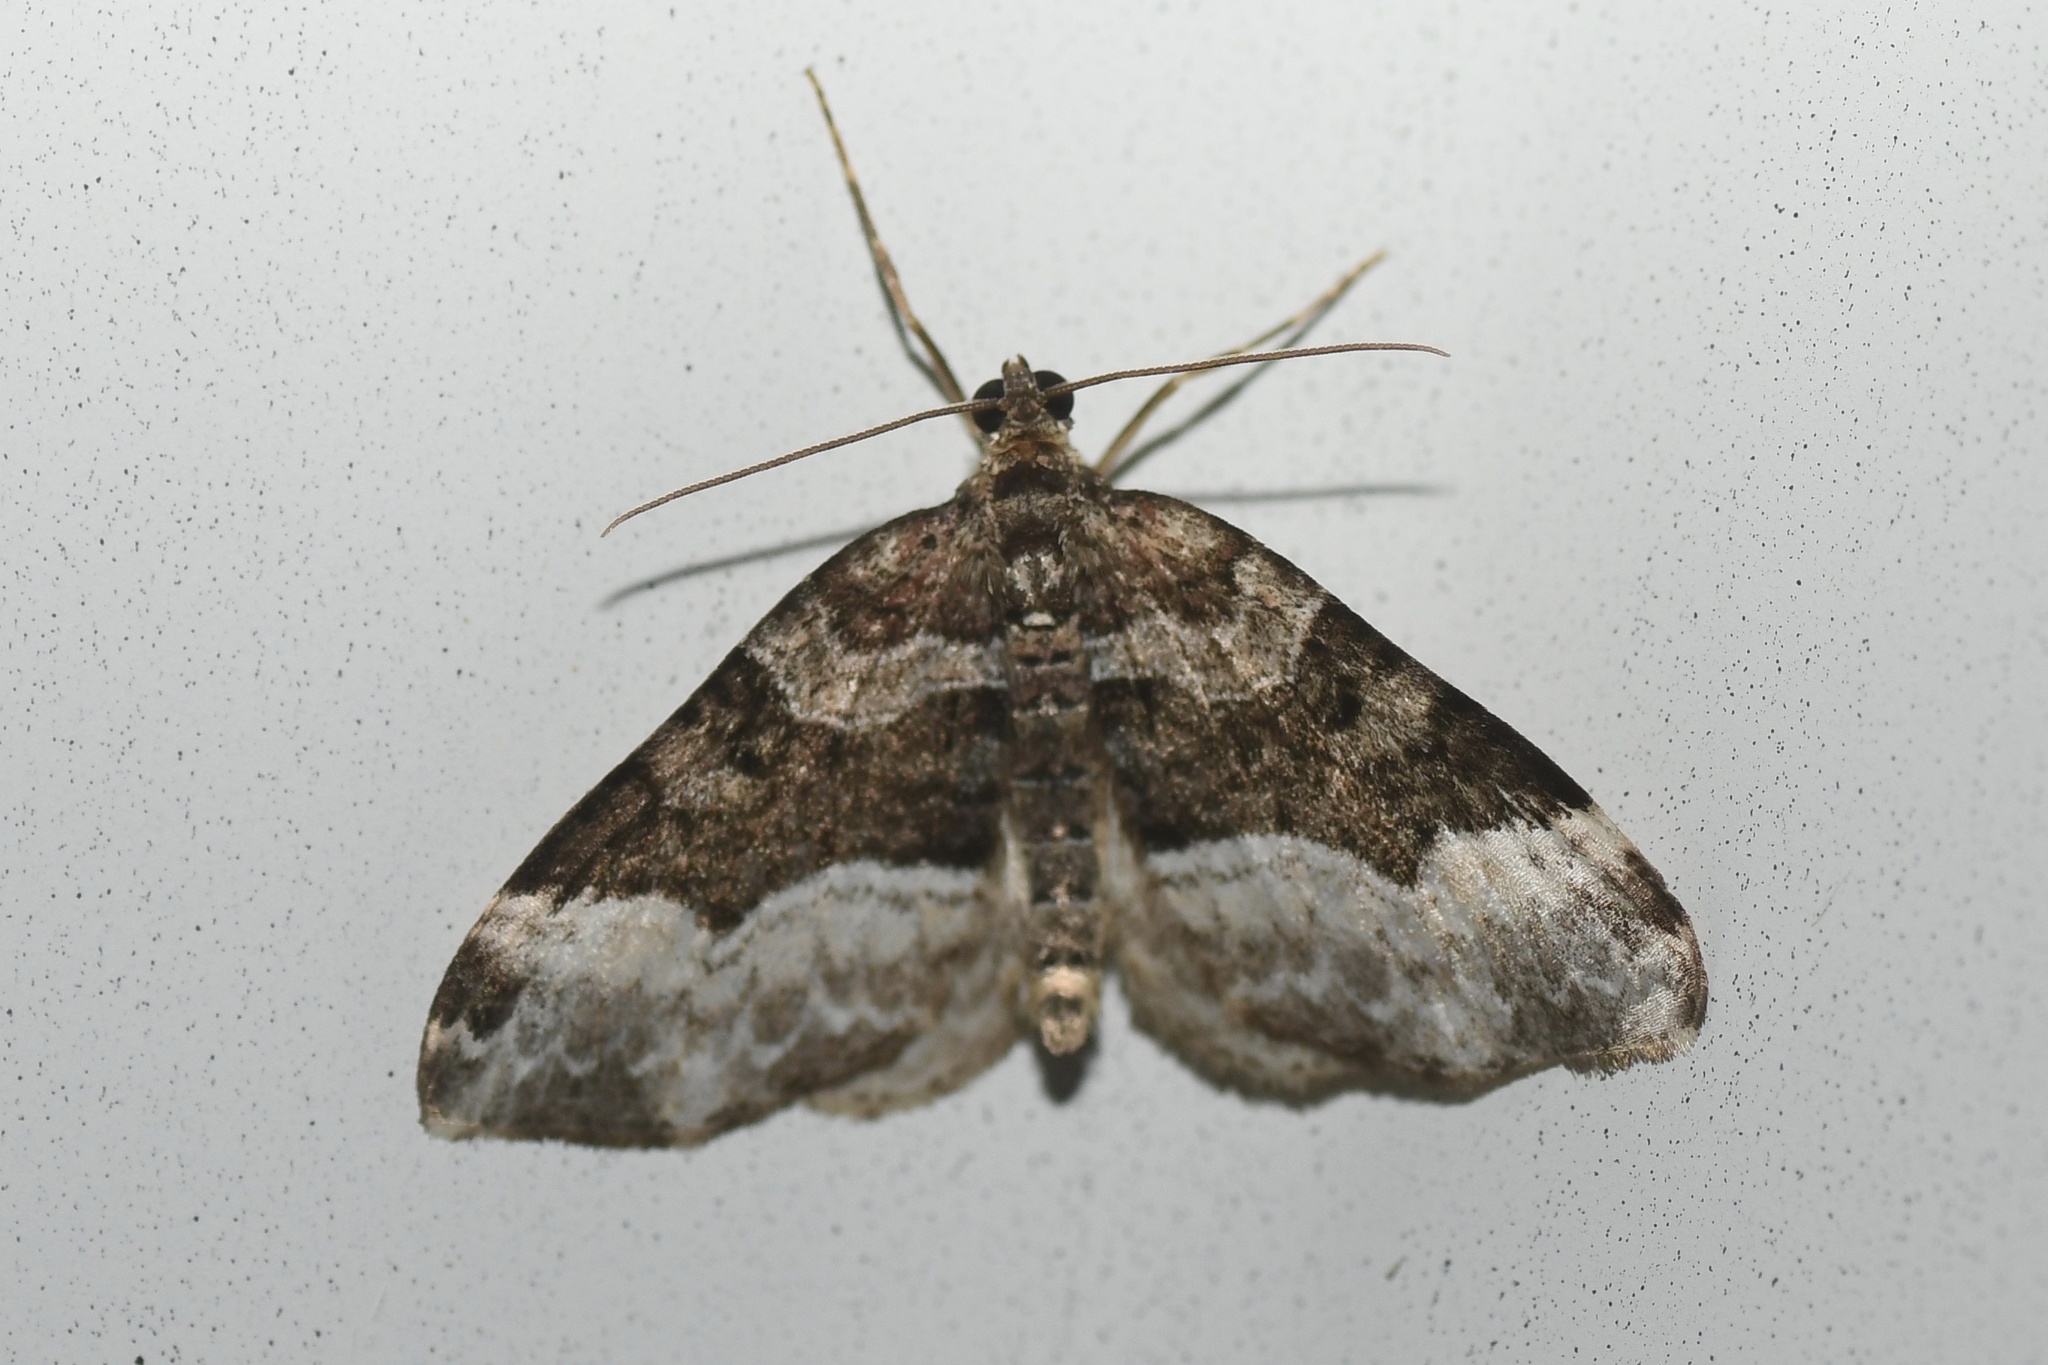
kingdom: Animalia
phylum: Arthropoda
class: Insecta
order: Lepidoptera
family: Geometridae
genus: Euphyia
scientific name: Euphyia intermediata
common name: Sharp-angled carpet
